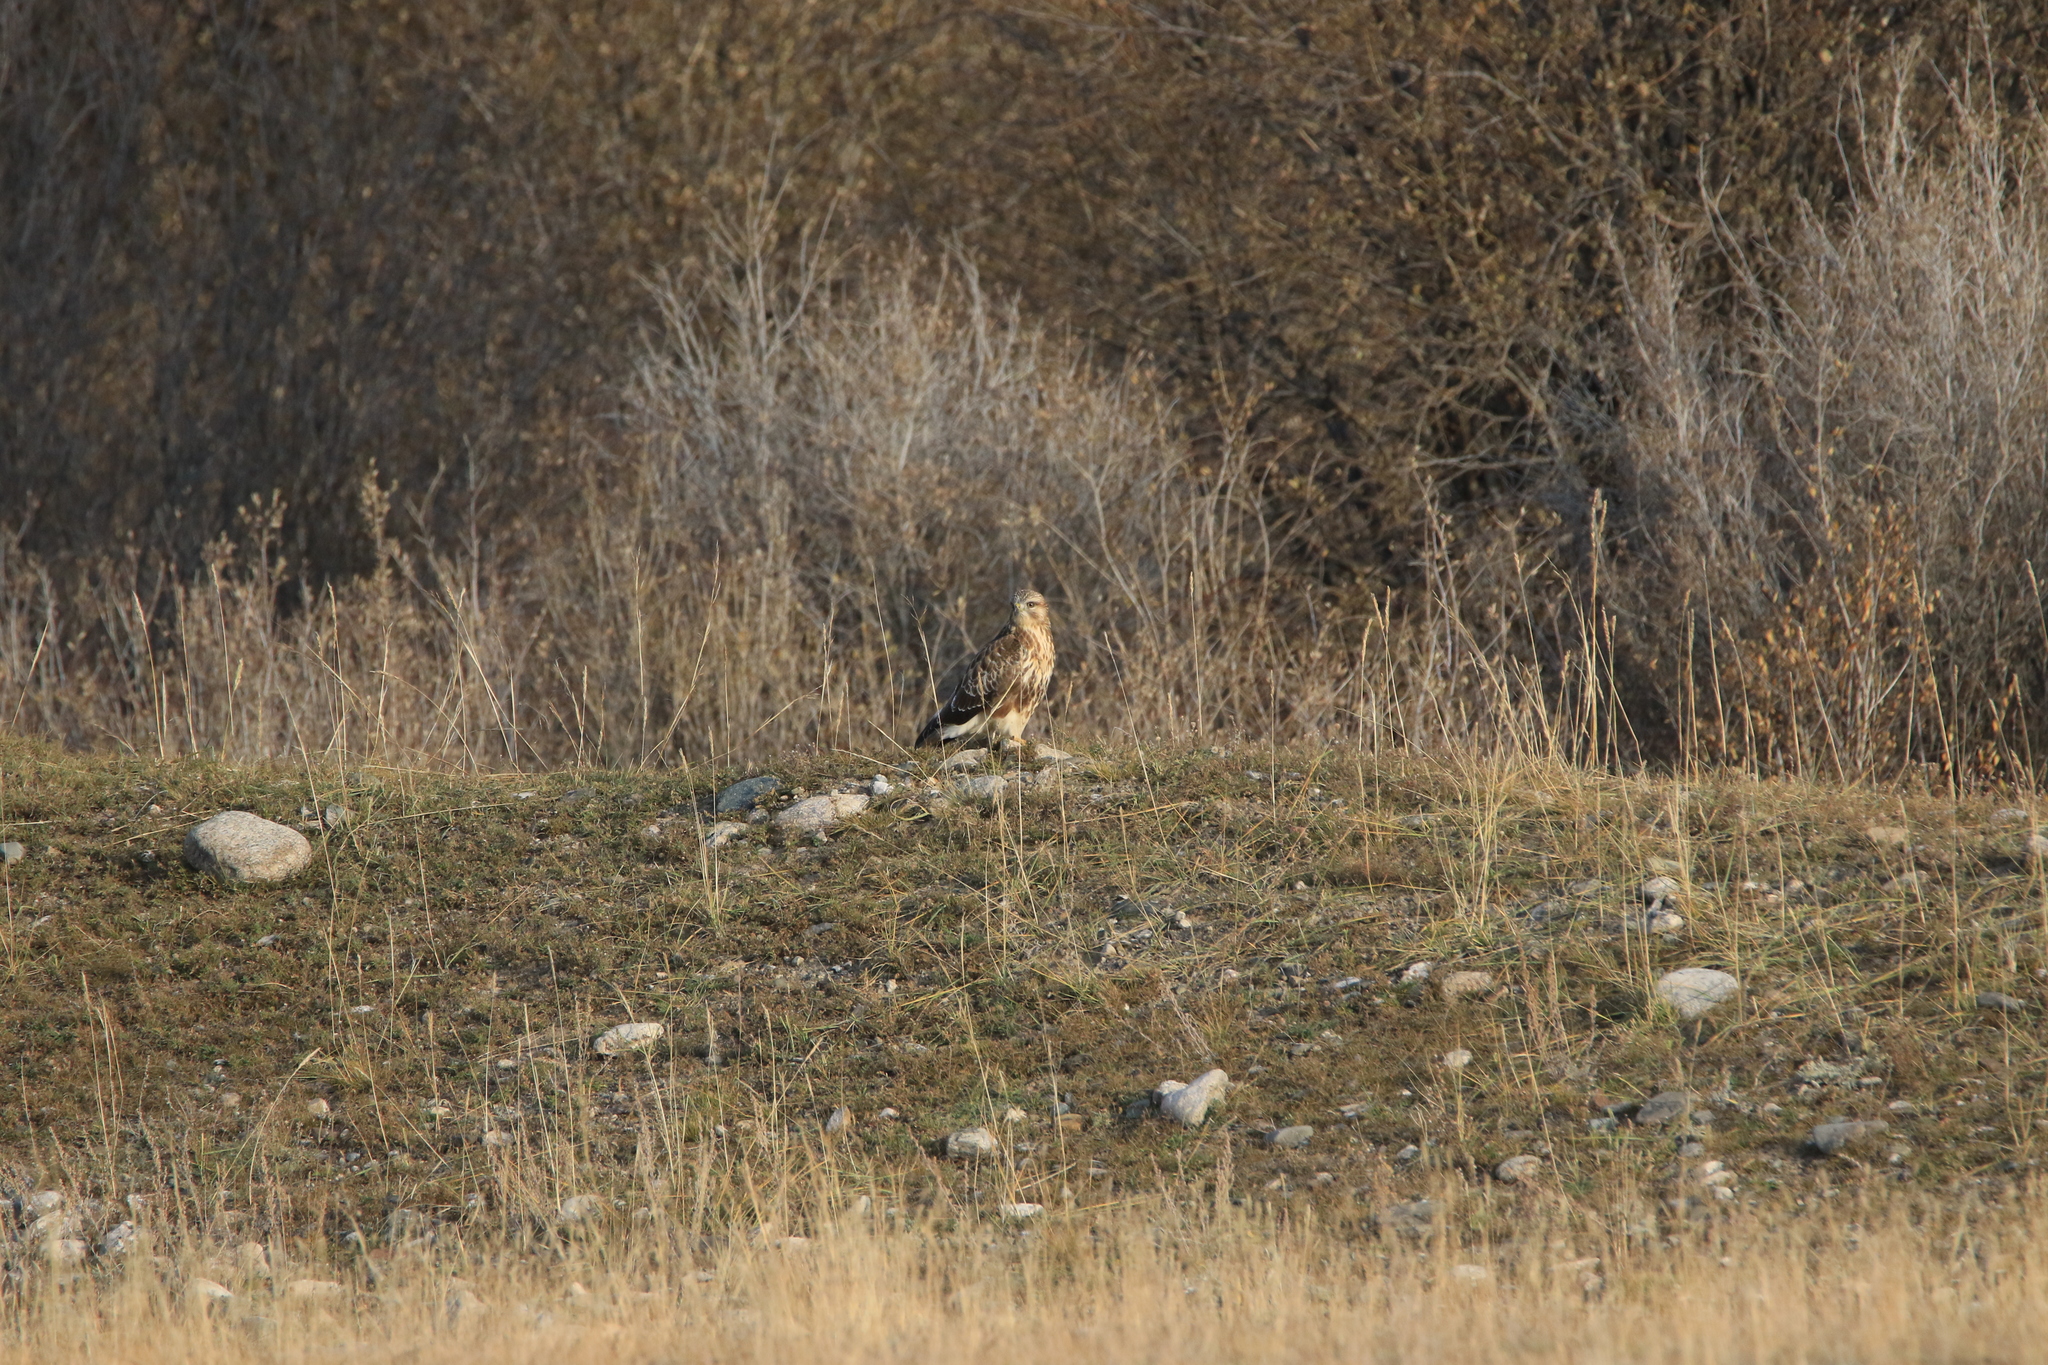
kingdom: Animalia
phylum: Chordata
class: Aves
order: Accipitriformes
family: Accipitridae
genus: Buteo
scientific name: Buteo hemilasius
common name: Upland buzzard
